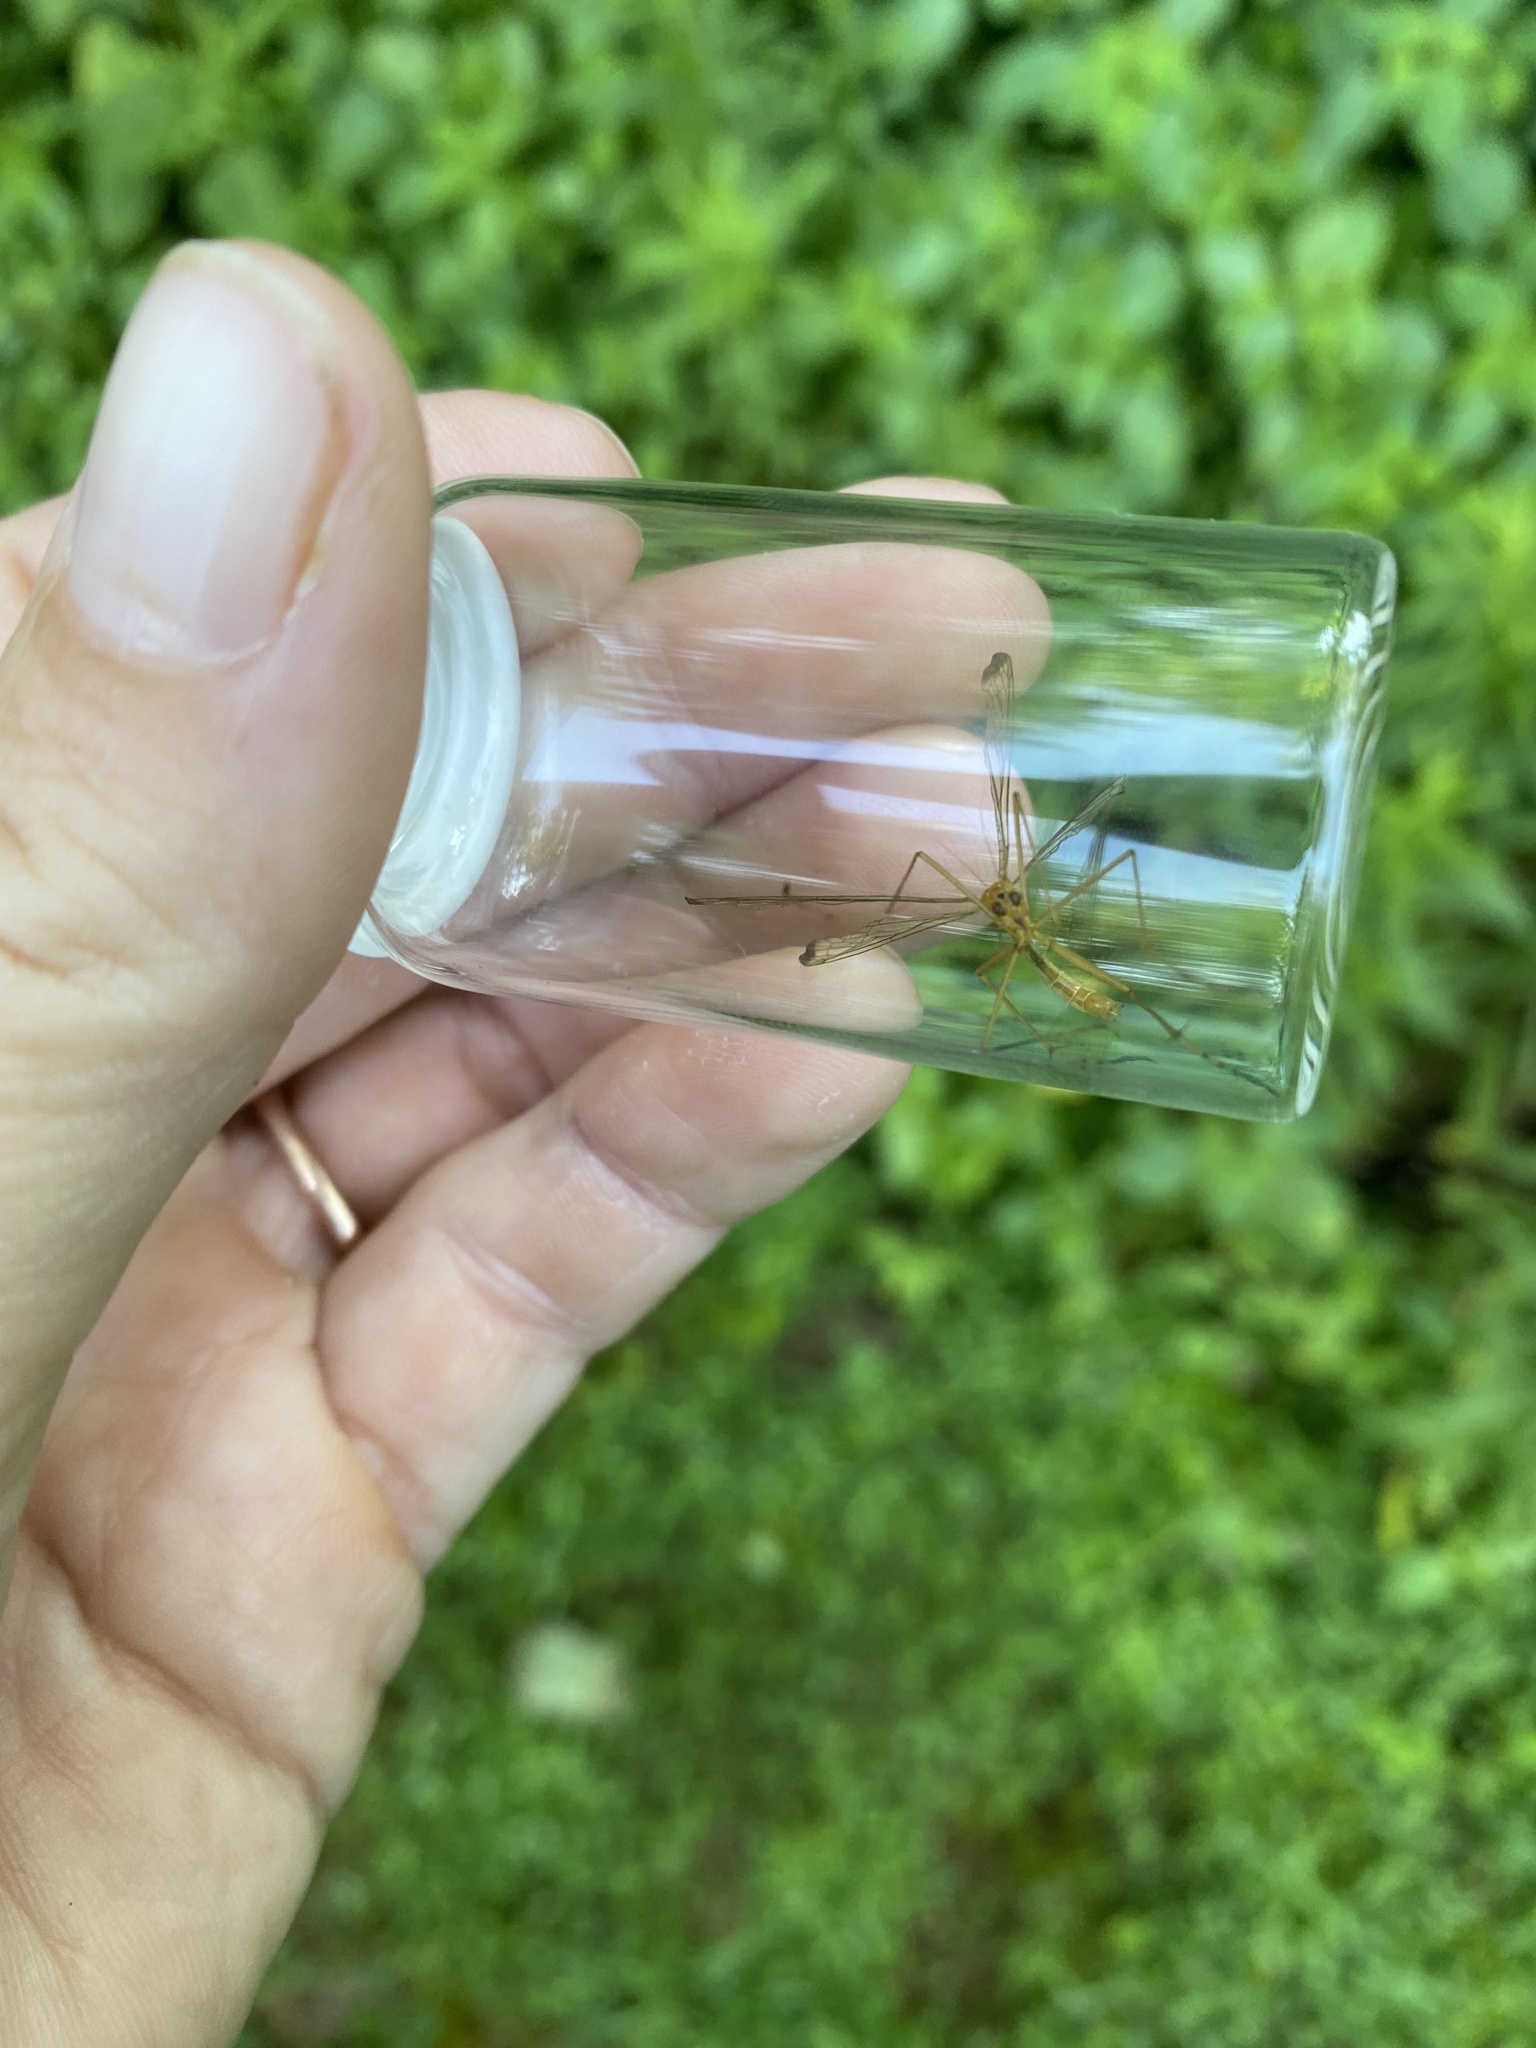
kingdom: Animalia
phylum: Arthropoda
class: Insecta
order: Mecoptera
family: Bittacidae
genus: Hylobittacus
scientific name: Hylobittacus apicalis
